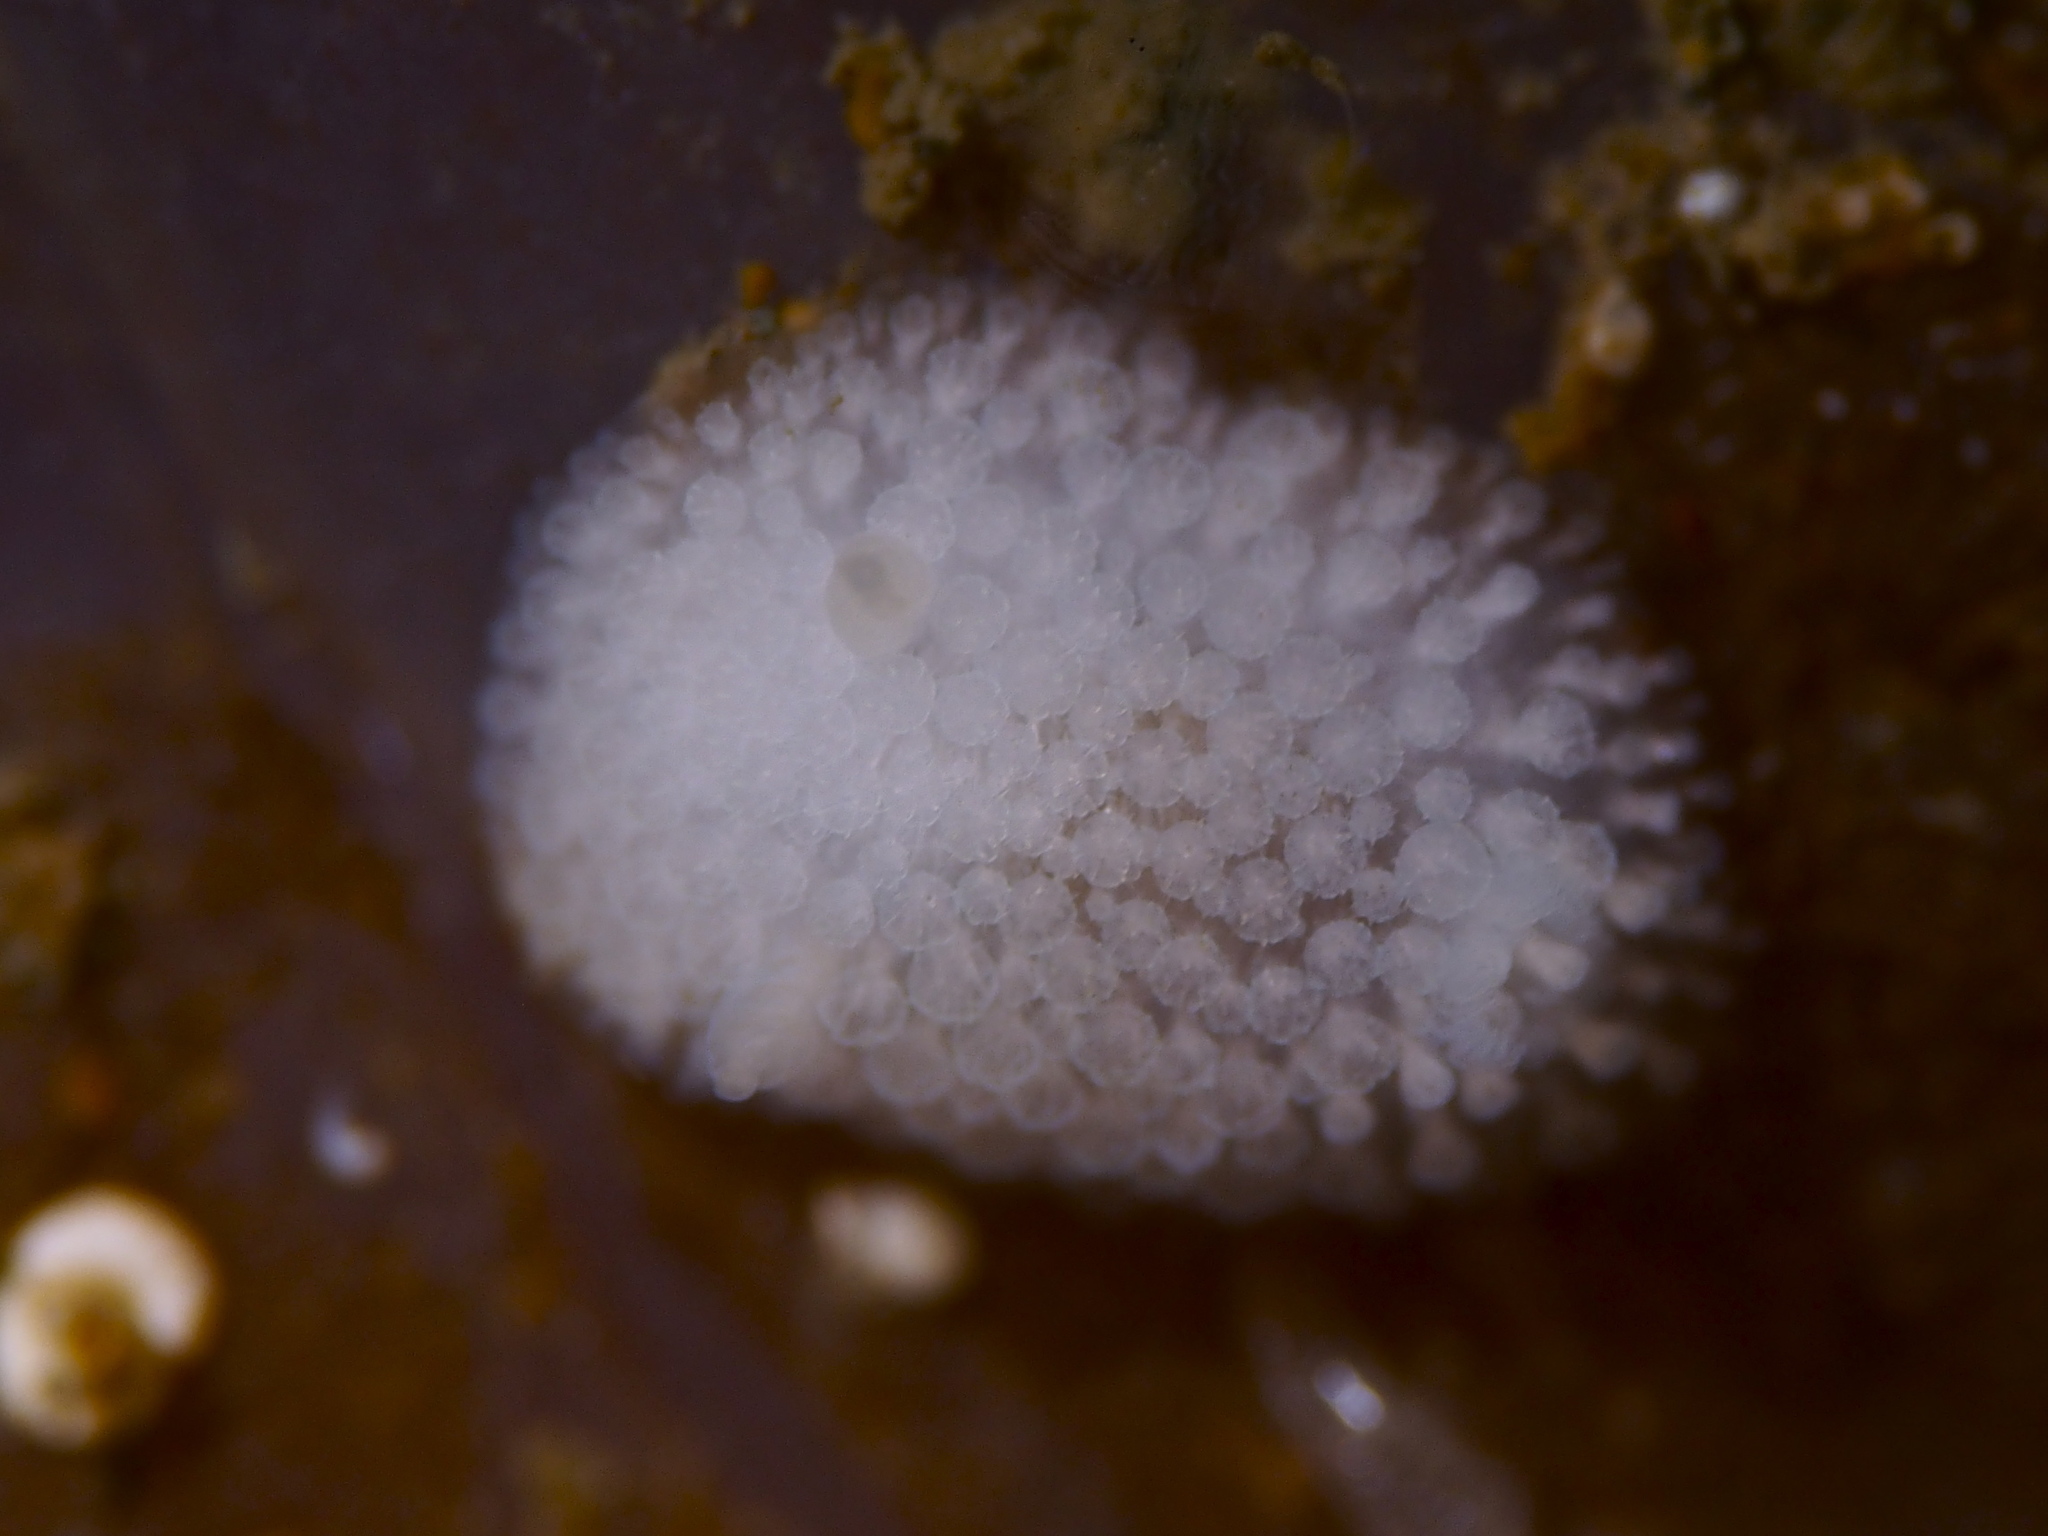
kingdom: Animalia
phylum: Mollusca
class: Gastropoda
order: Nudibranchia
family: Onchidorididae
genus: Onchidoris
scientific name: Onchidoris muricata
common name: Rough doris
